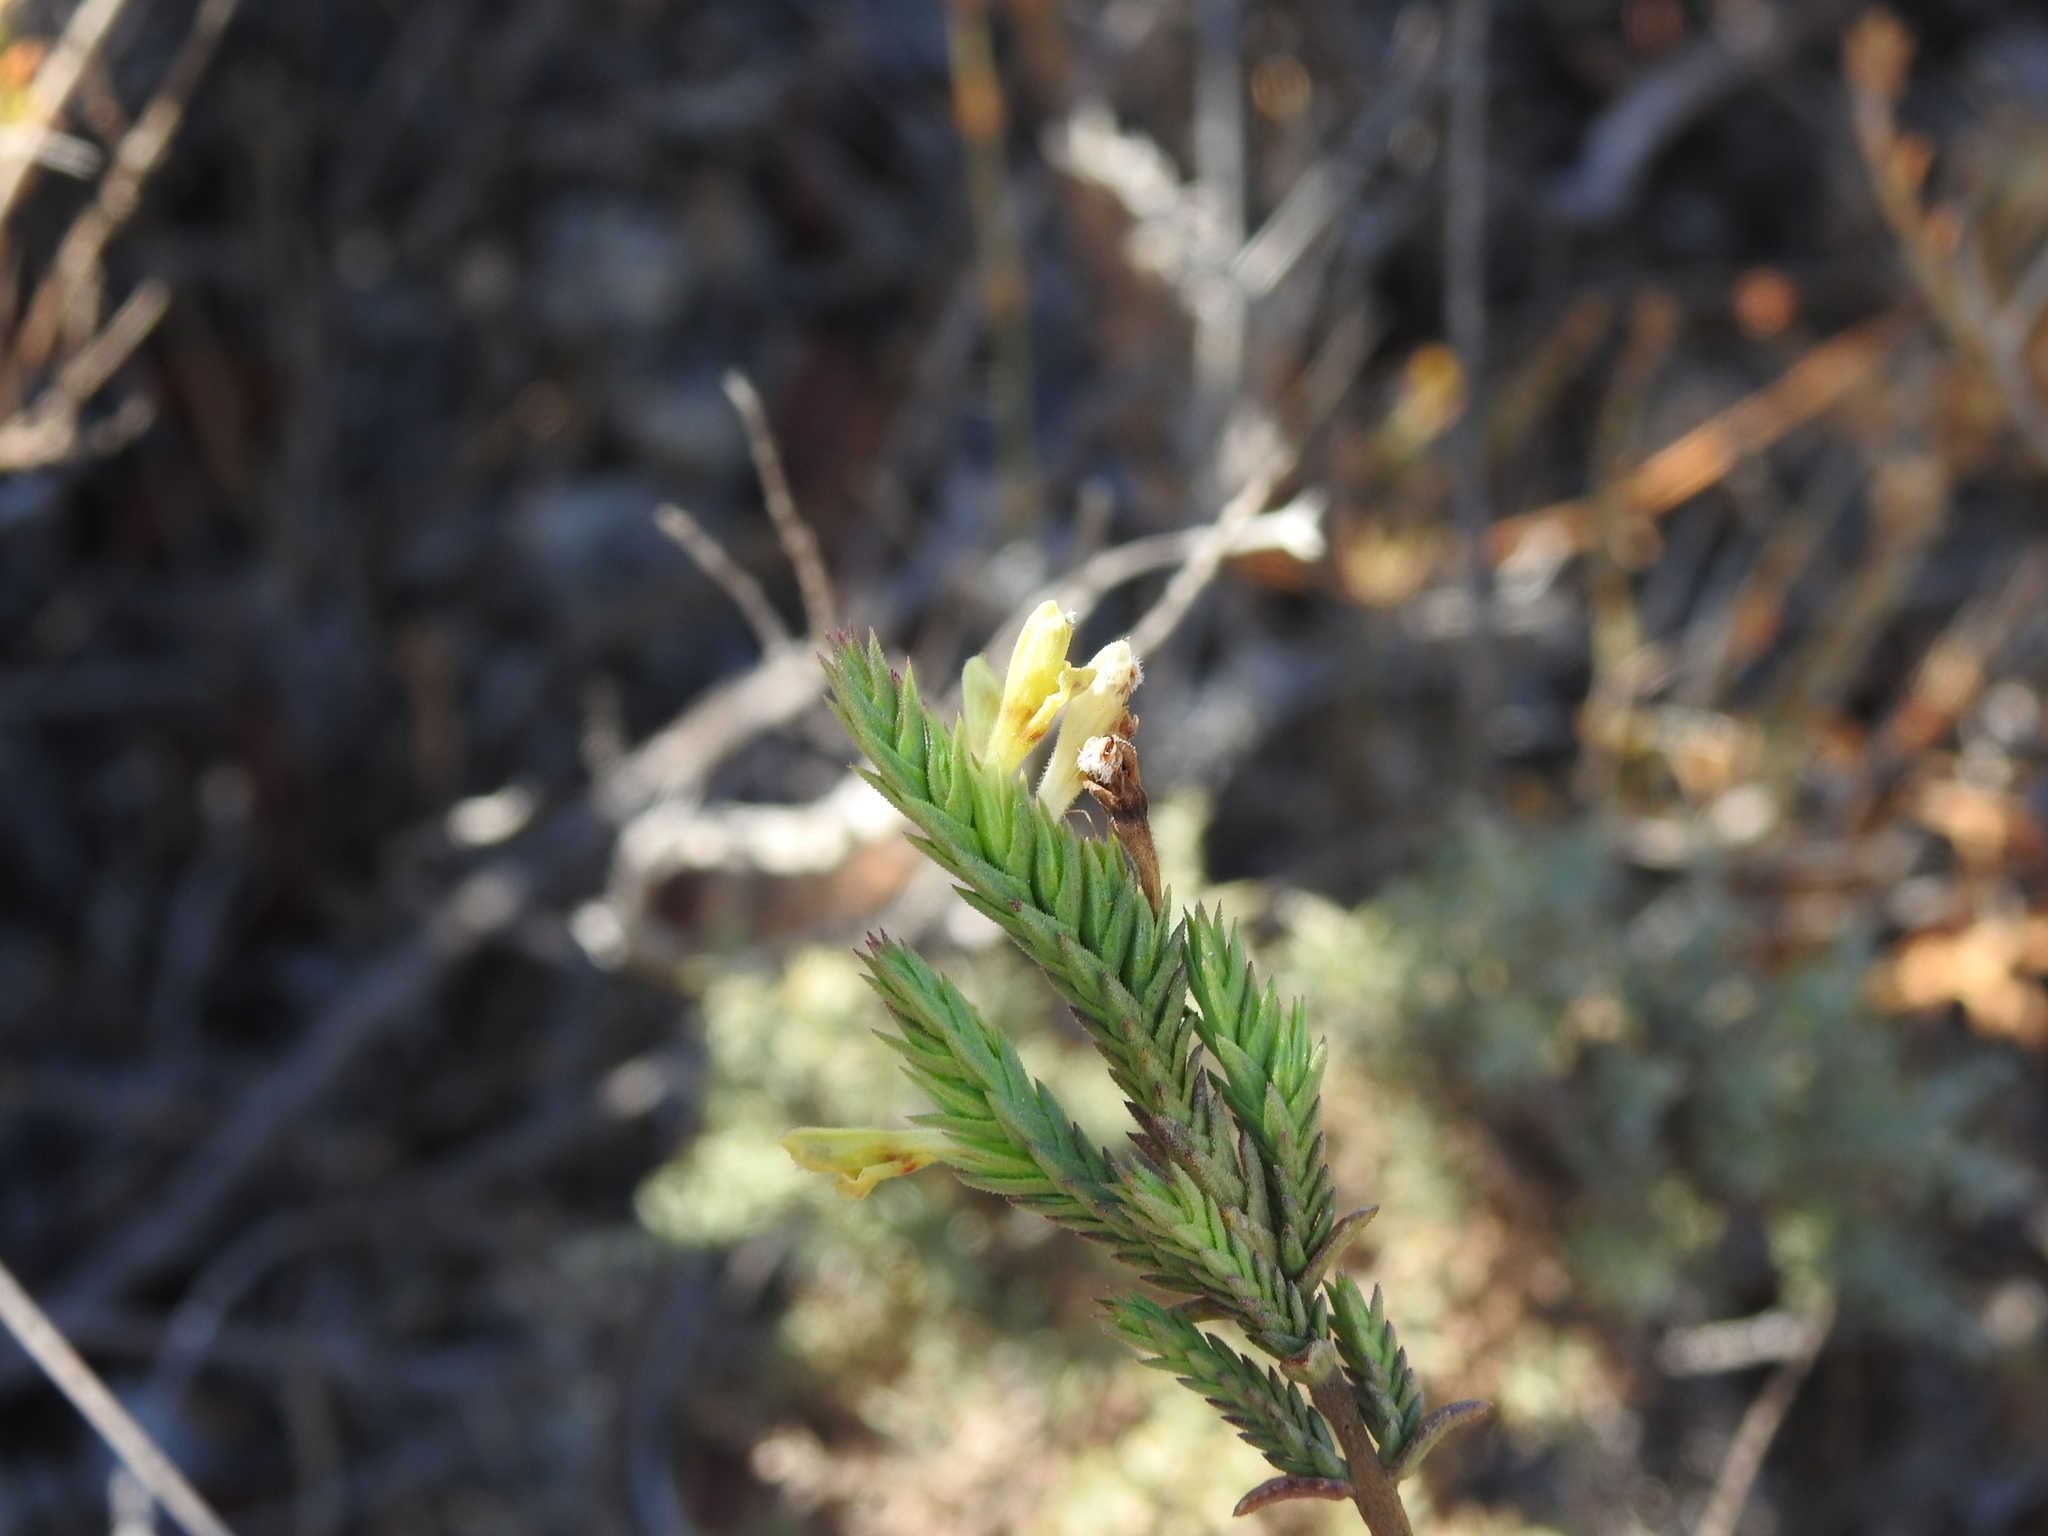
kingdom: Plantae
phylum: Tracheophyta
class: Magnoliopsida
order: Lamiales
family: Orobanchaceae
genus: Nothobartsia
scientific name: Nothobartsia asperrima
